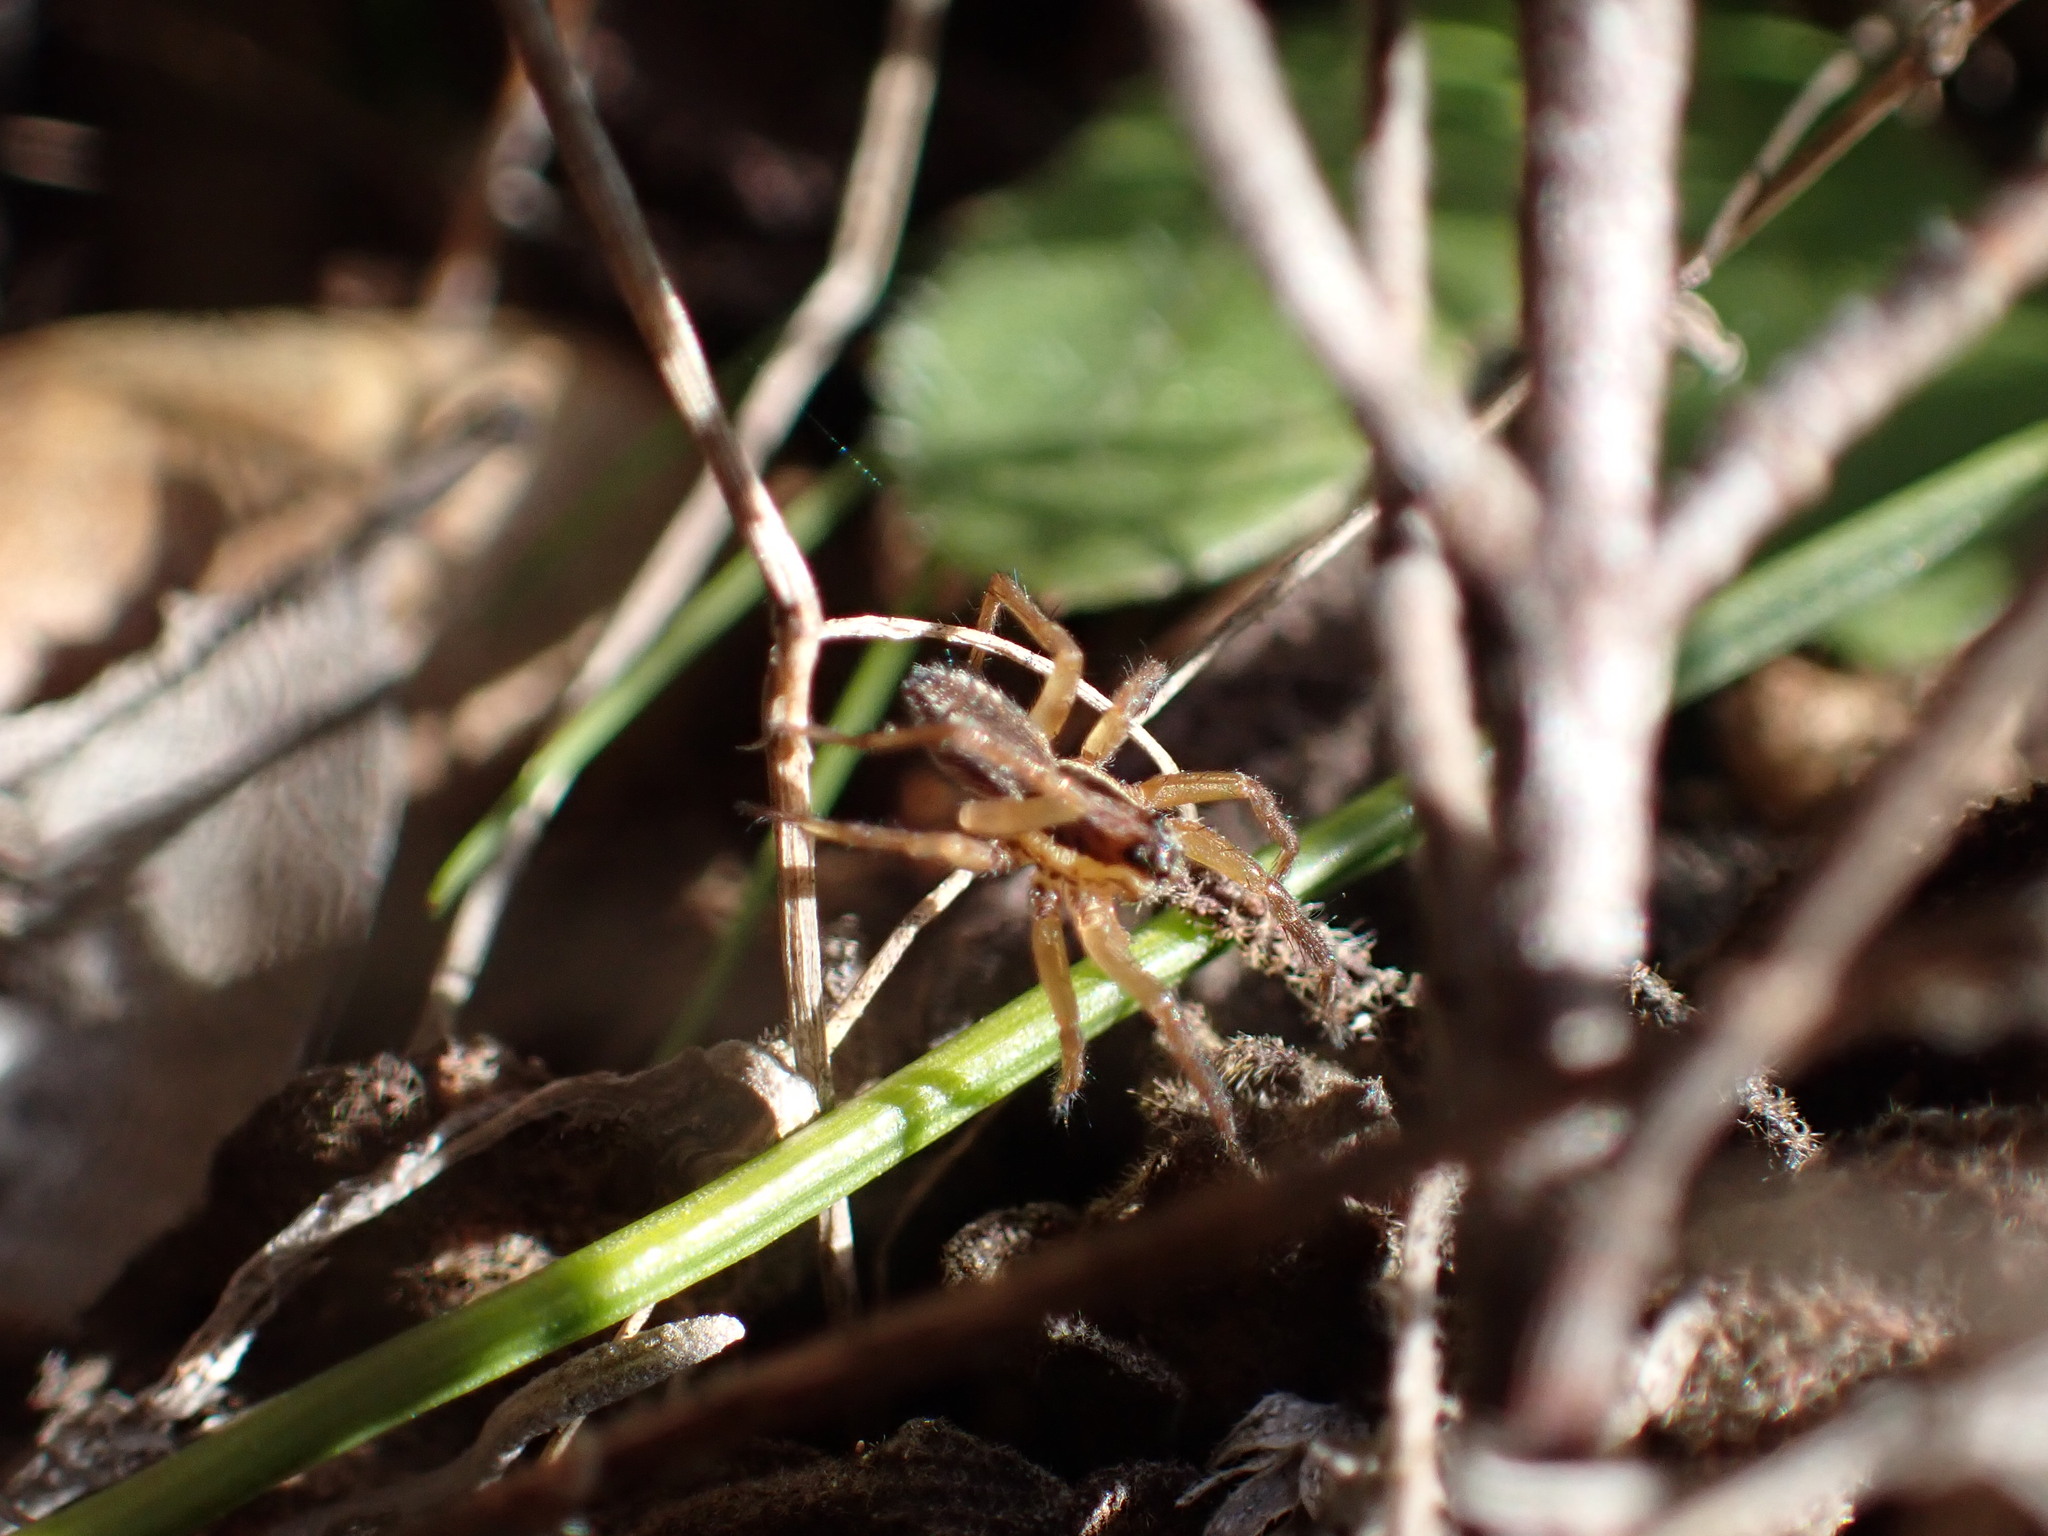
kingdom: Animalia
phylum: Arthropoda
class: Arachnida
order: Araneae
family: Lycosidae
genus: Hogna
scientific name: Hogna radiata
